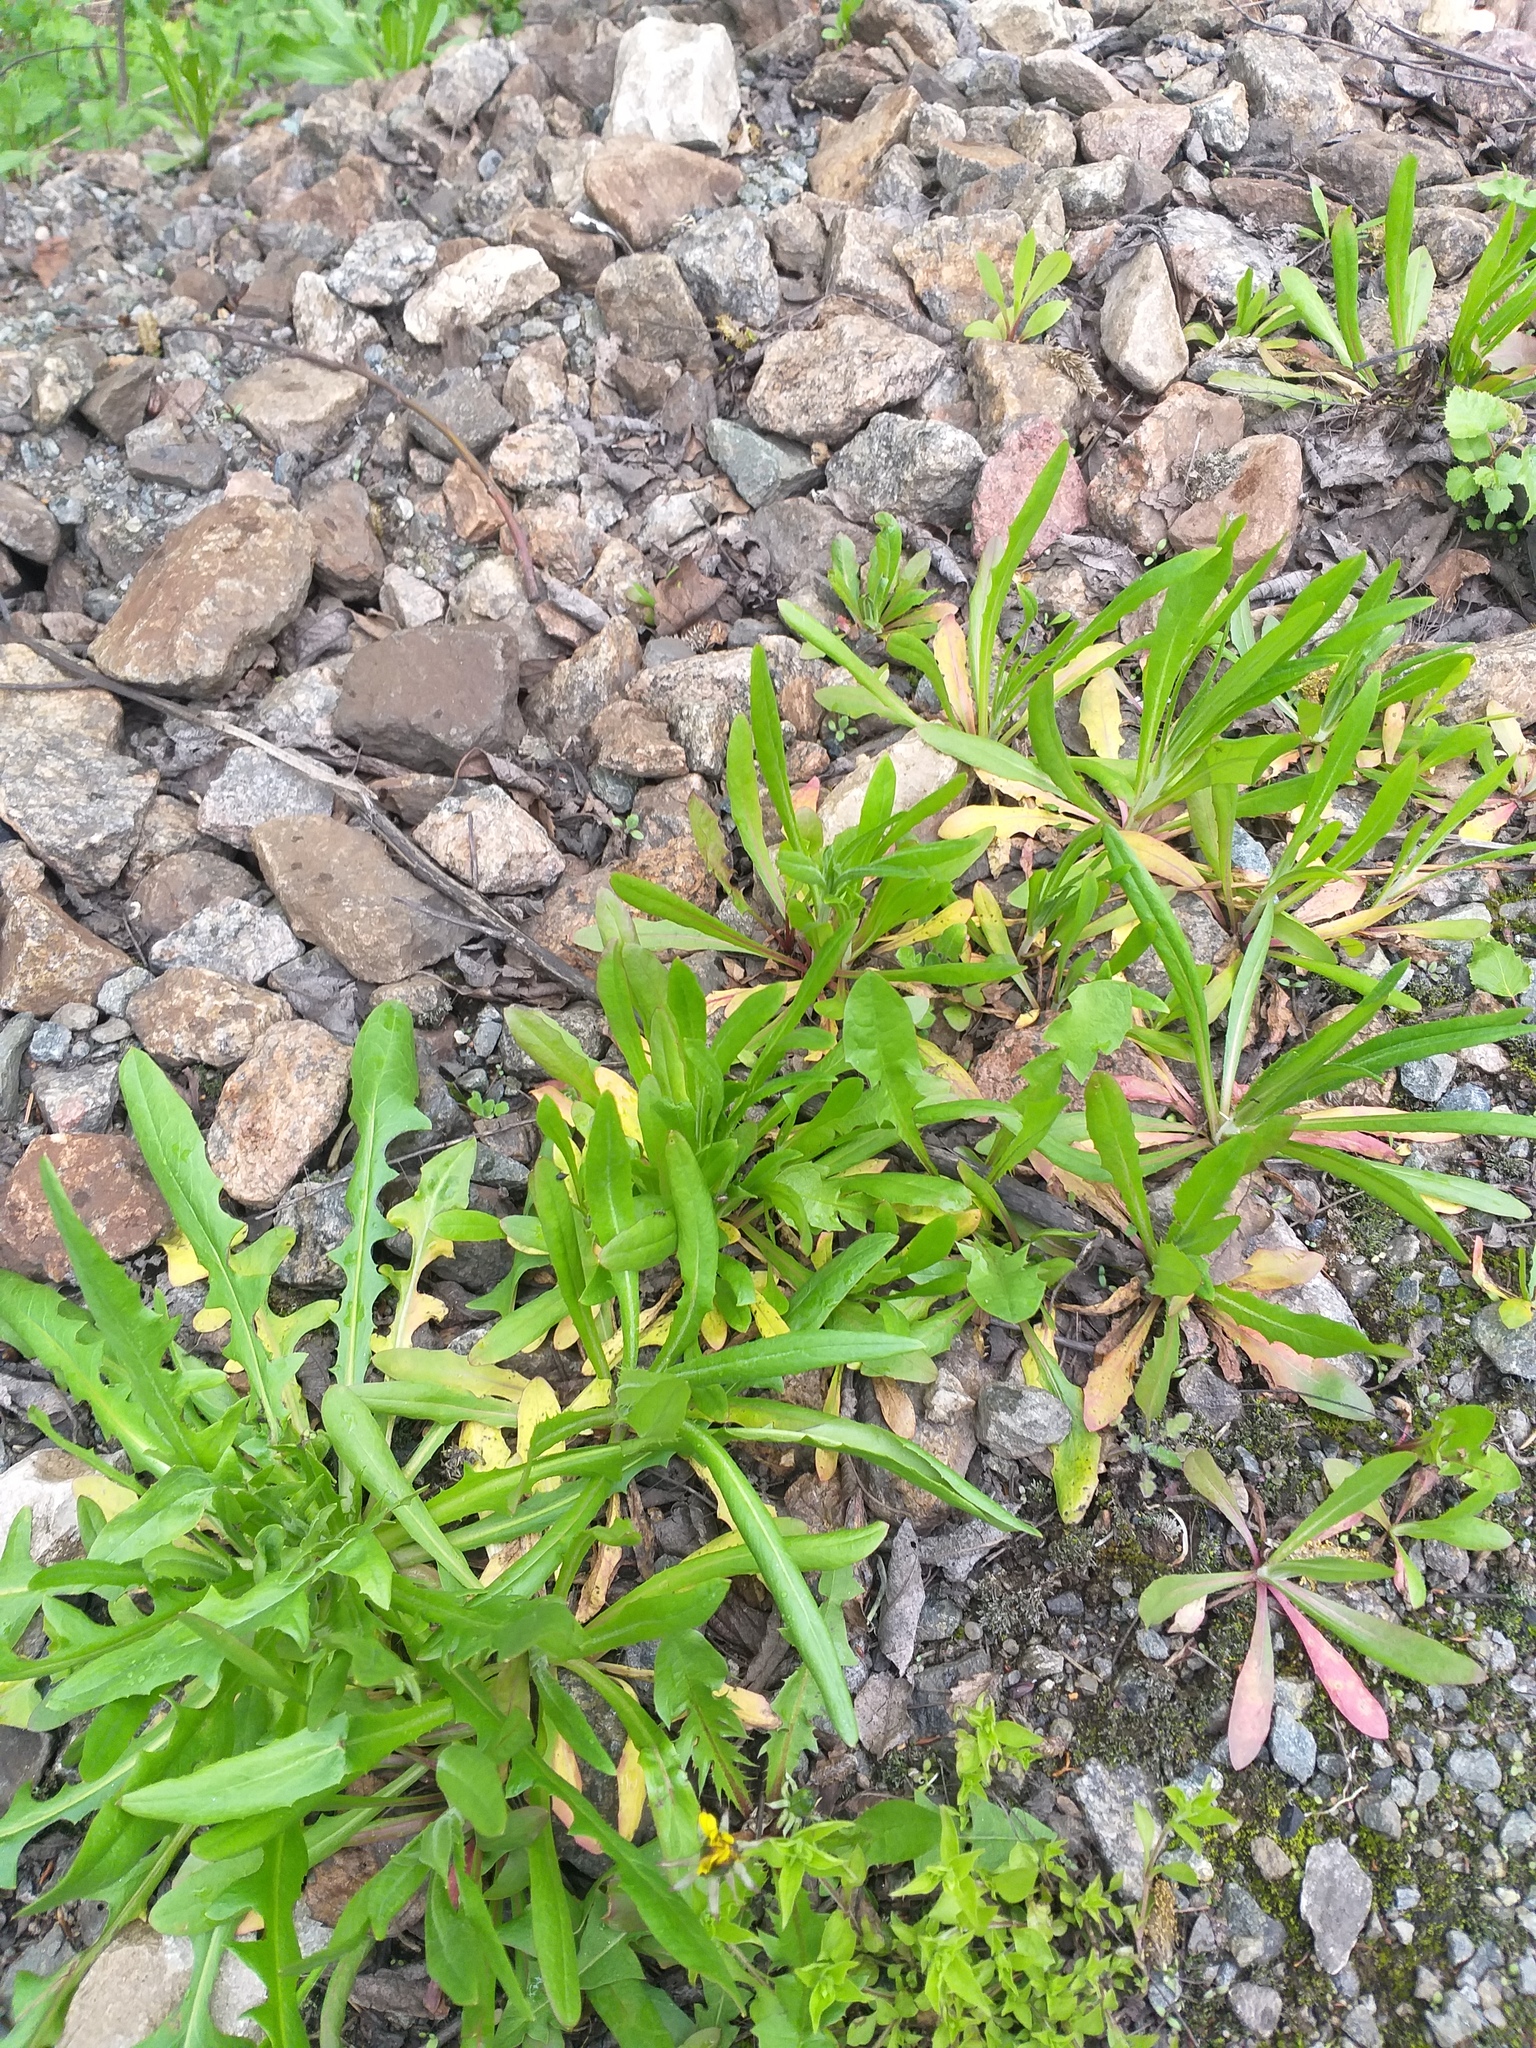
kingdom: Plantae
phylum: Tracheophyta
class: Magnoliopsida
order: Asterales
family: Asteraceae
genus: Crepis
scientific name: Crepis tectorum
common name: Narrow-leaved hawk's-beard
